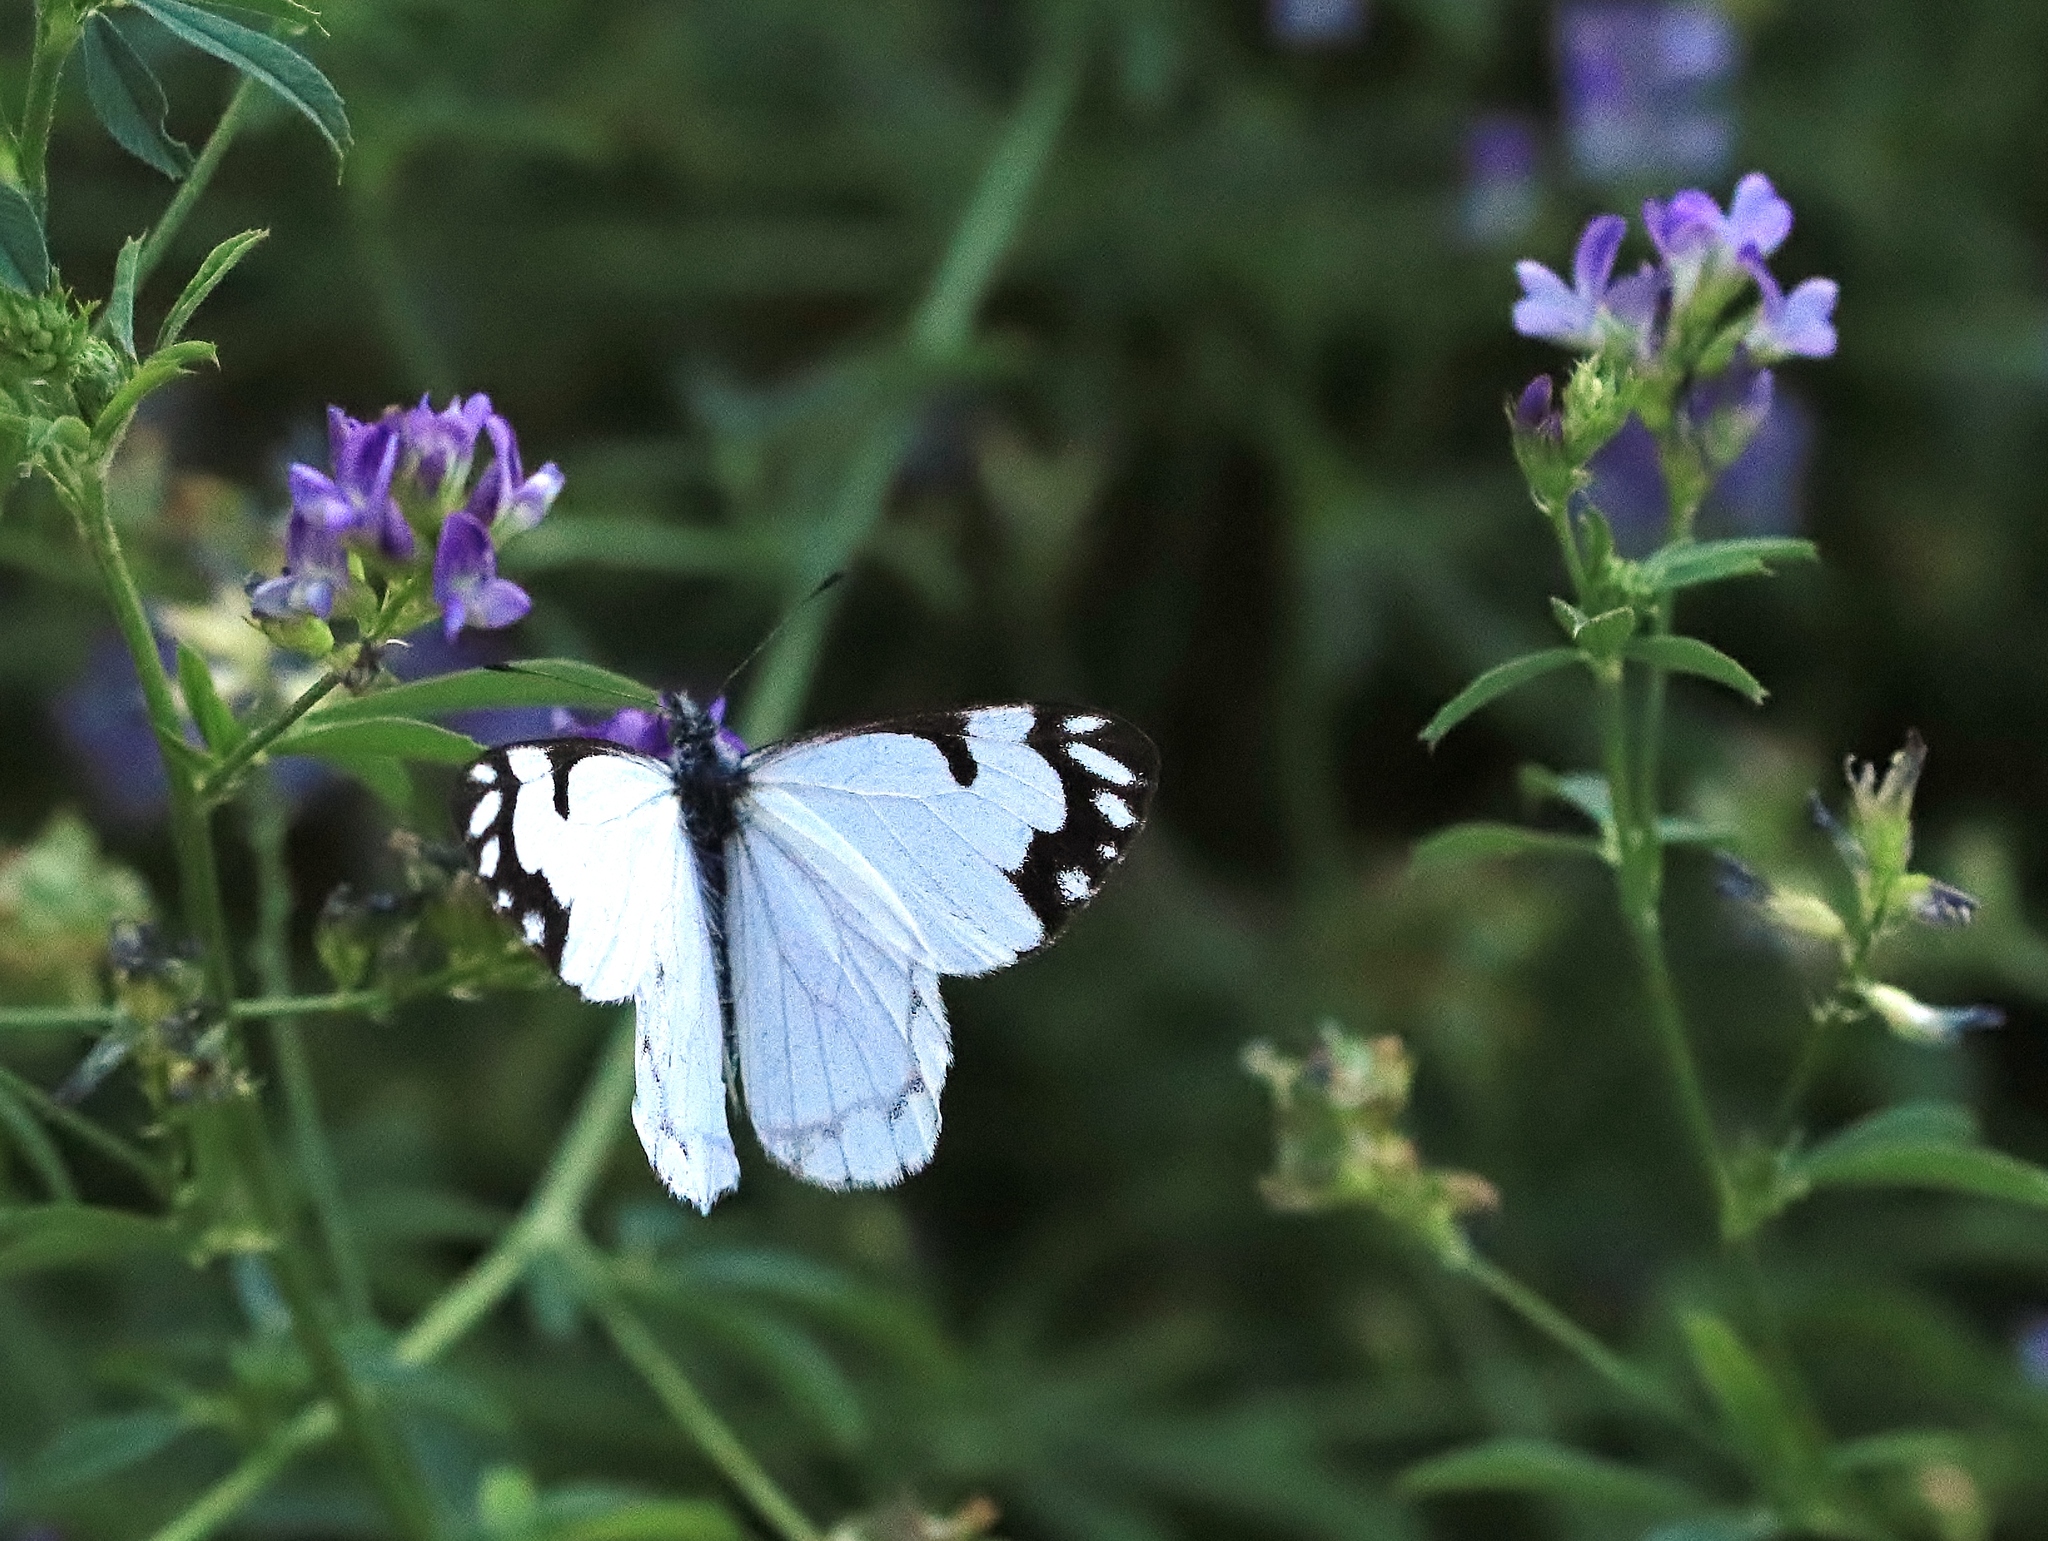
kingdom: Animalia
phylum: Arthropoda
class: Insecta
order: Lepidoptera
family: Pieridae
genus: Neophasia
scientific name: Neophasia menapia
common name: Pine white
